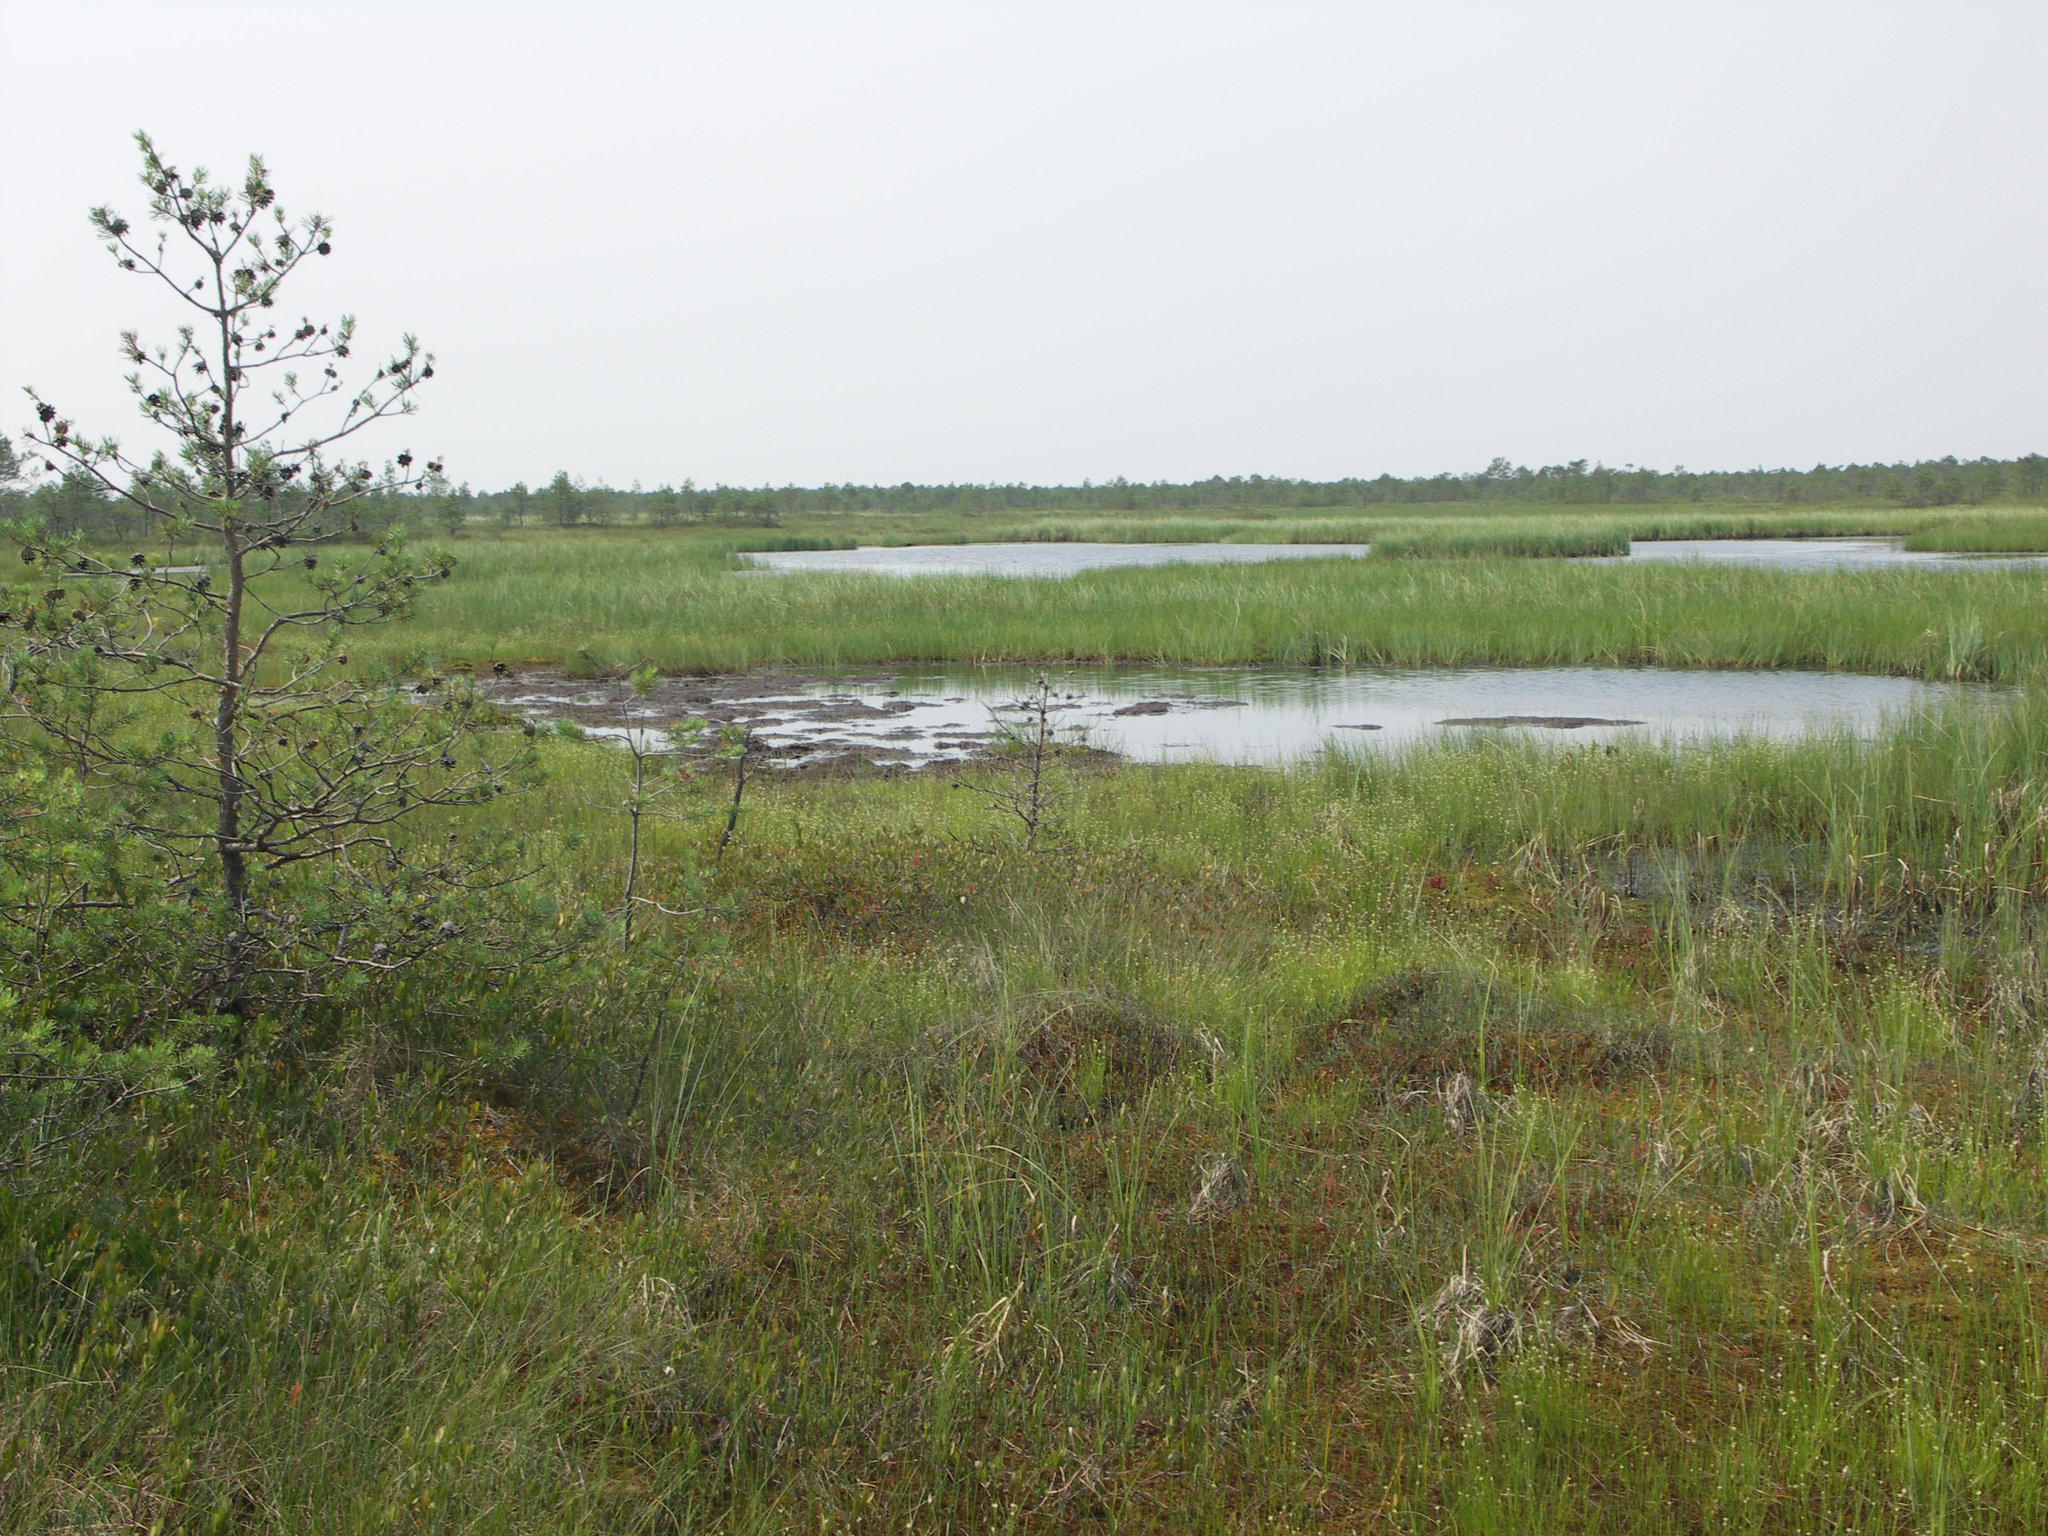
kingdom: Plantae
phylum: Tracheophyta
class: Pinopsida
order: Pinales
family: Pinaceae
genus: Pinus
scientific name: Pinus sylvestris
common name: Scots pine
